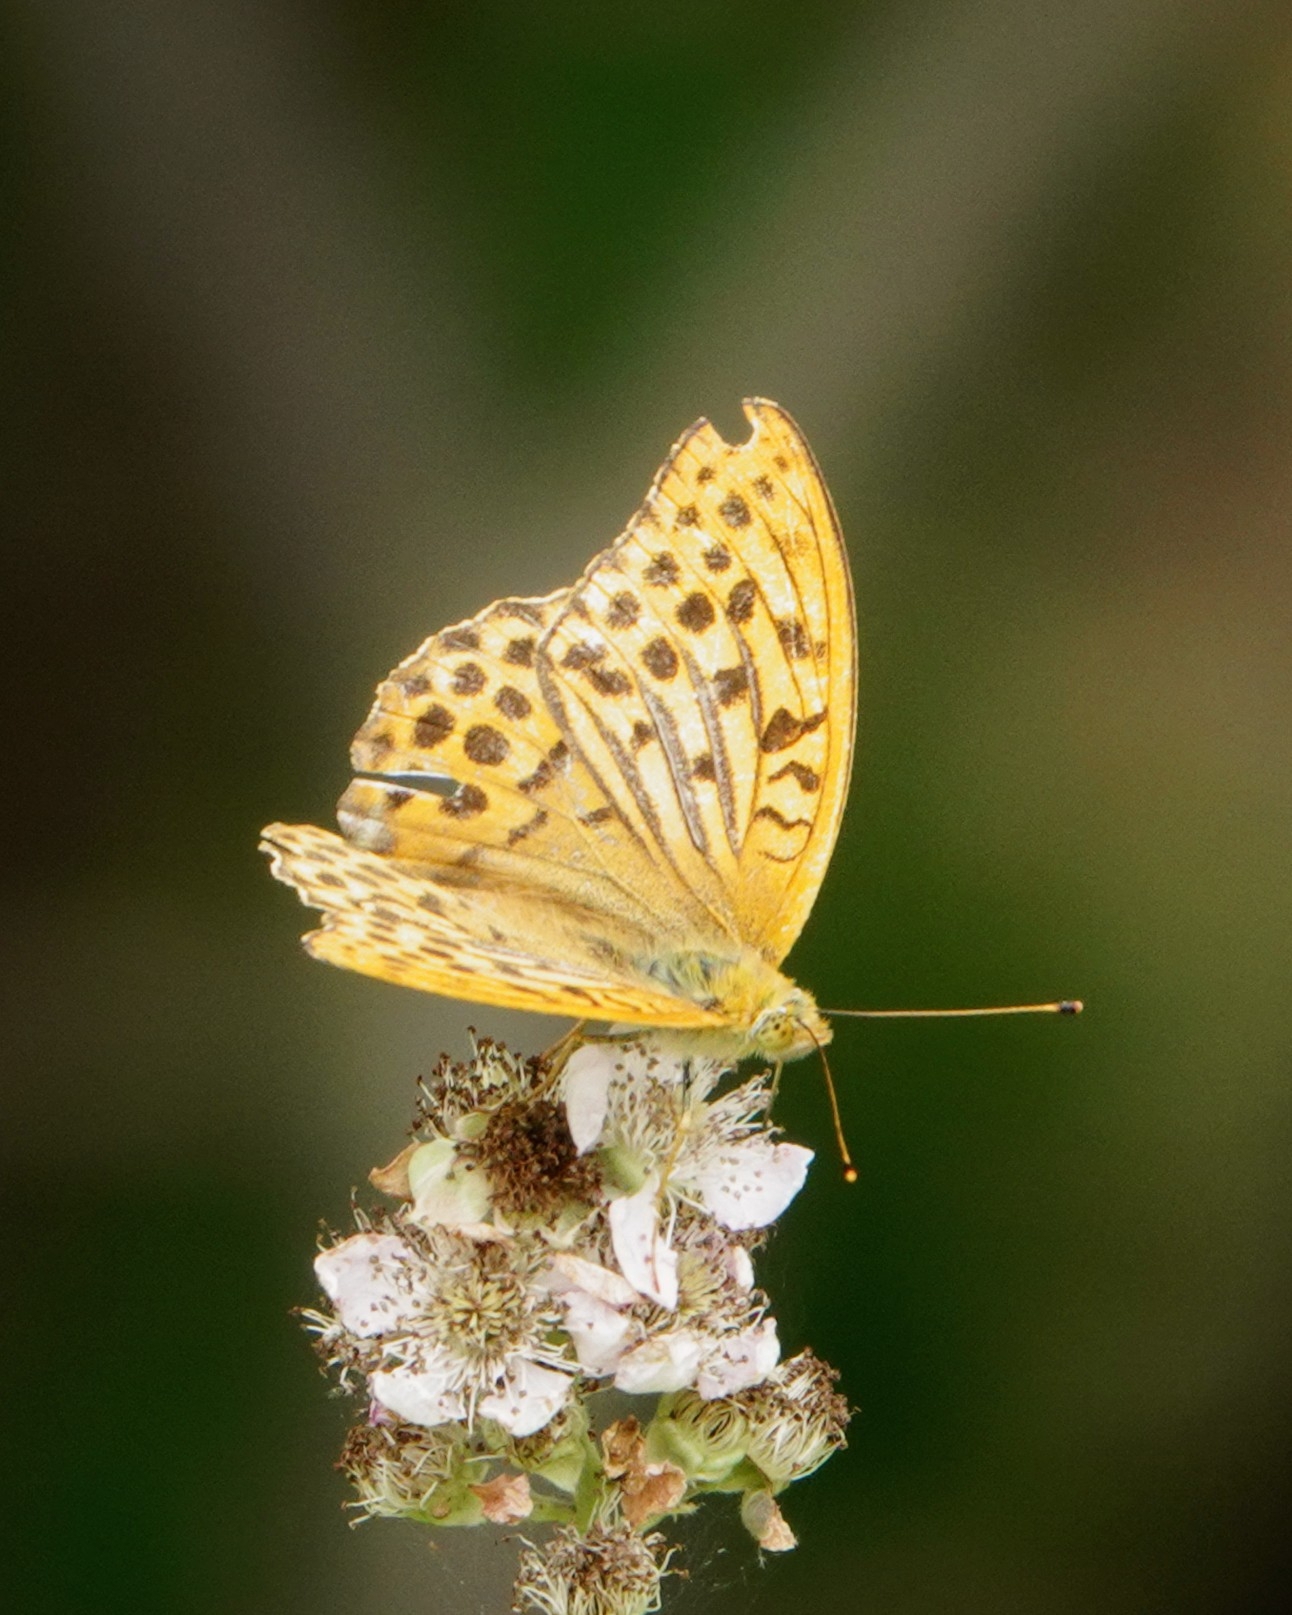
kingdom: Animalia
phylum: Arthropoda
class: Insecta
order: Lepidoptera
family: Nymphalidae
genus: Argynnis
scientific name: Argynnis paphia
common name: Silver-washed fritillary
